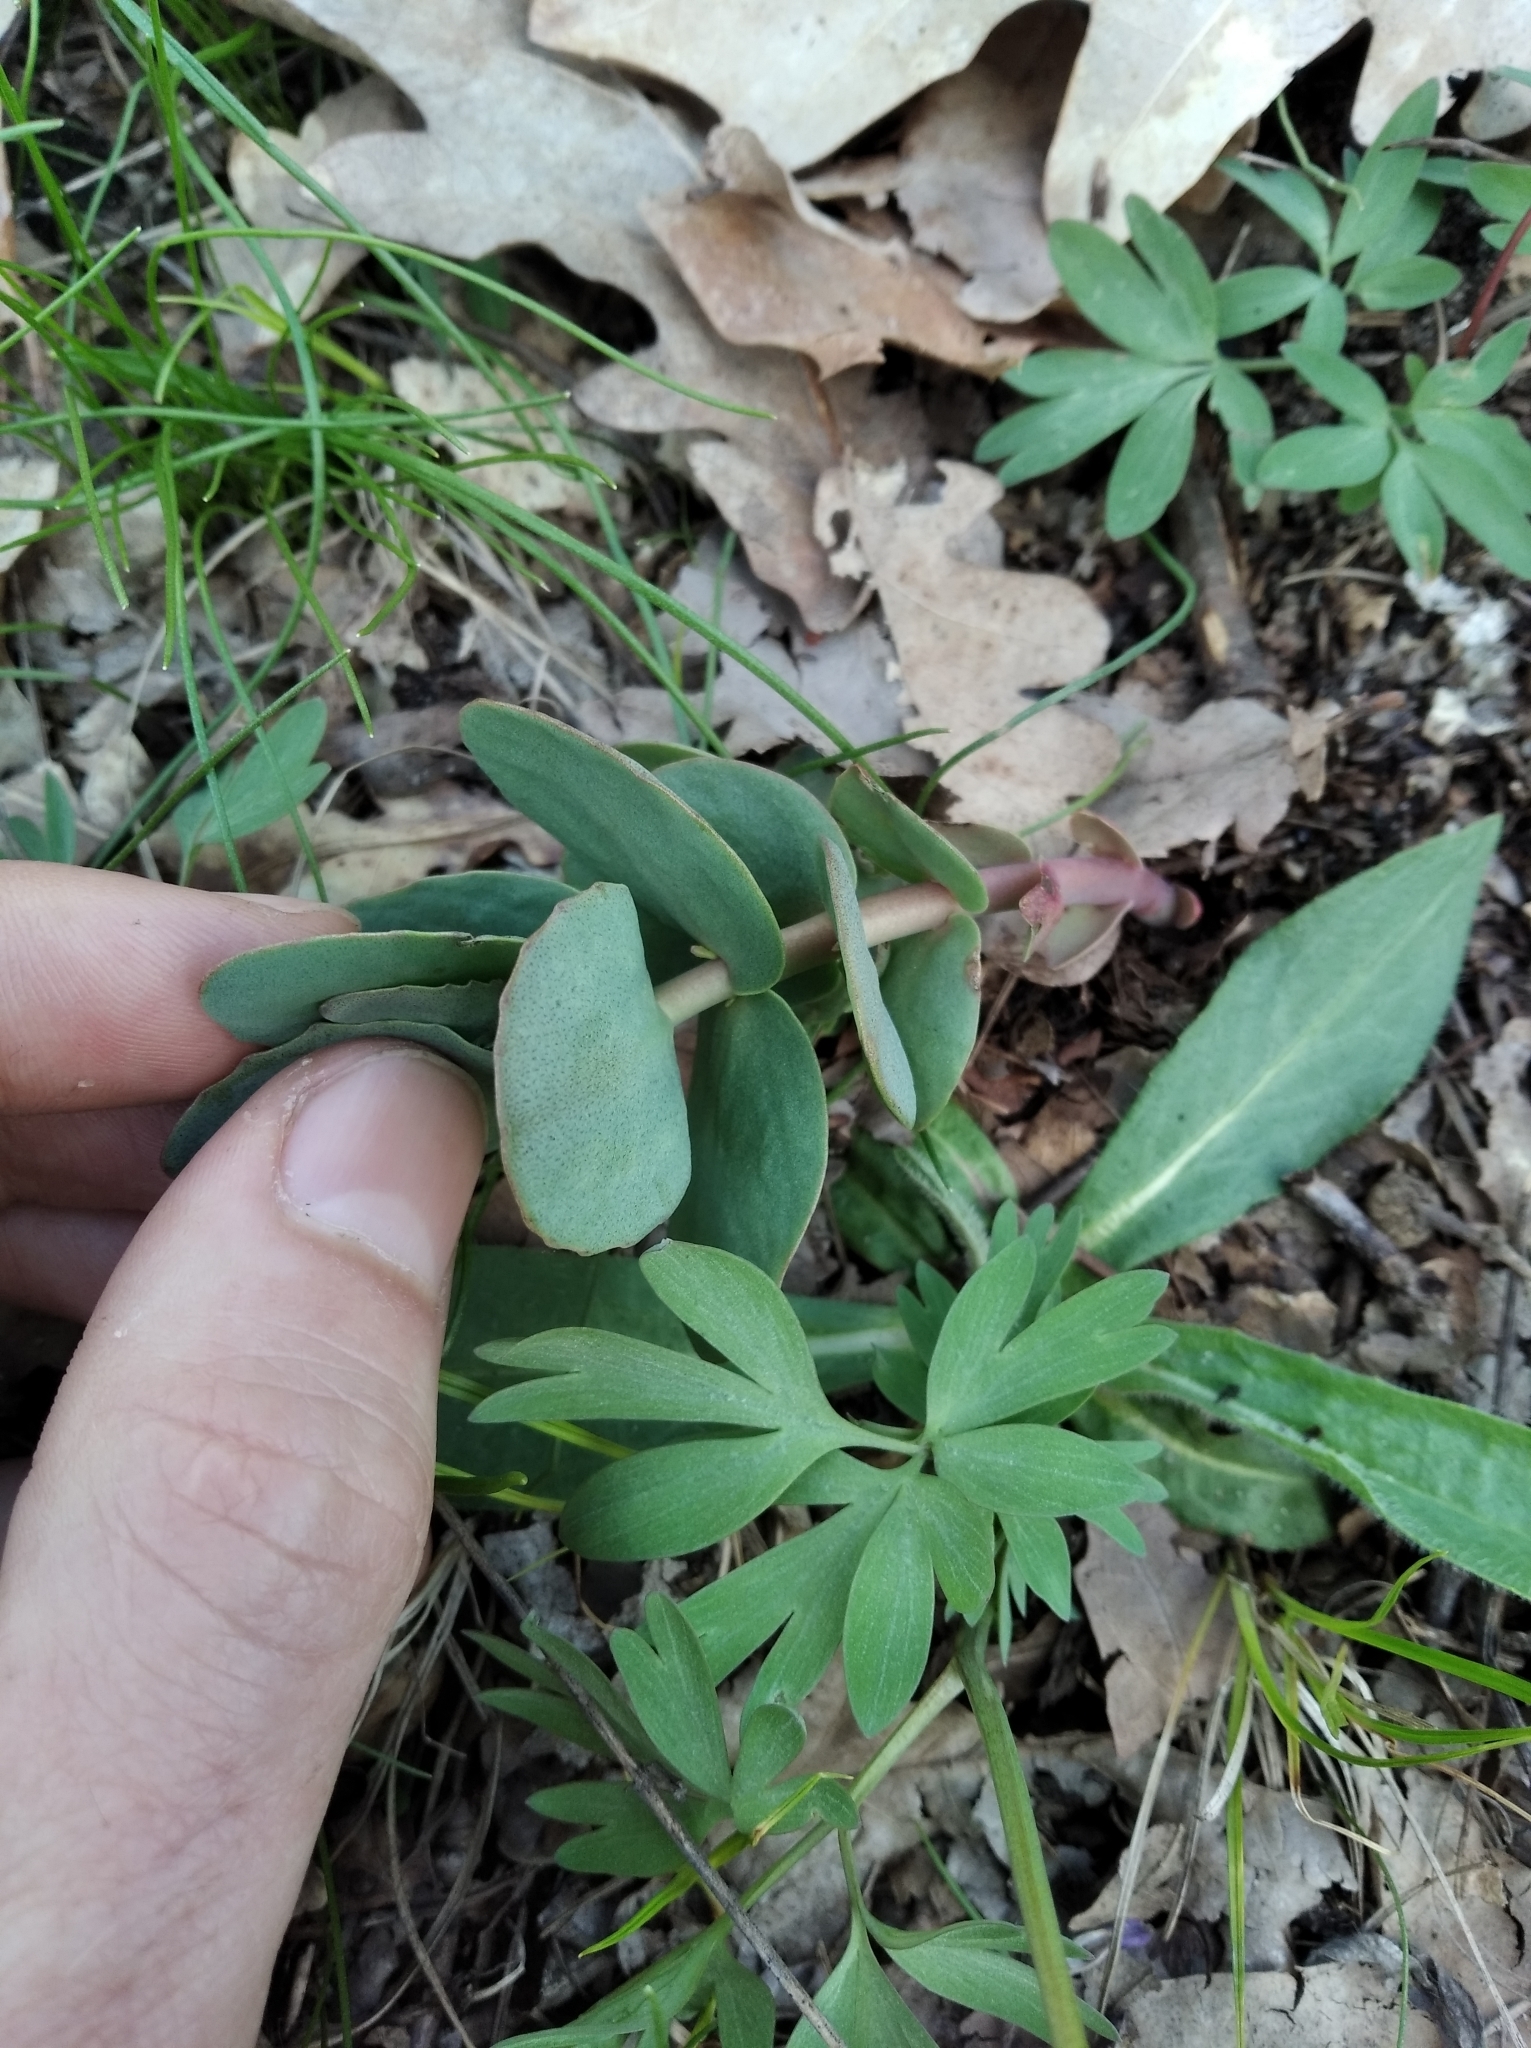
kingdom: Plantae
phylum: Tracheophyta
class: Magnoliopsida
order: Saxifragales
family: Crassulaceae
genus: Hylotelephium
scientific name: Hylotelephium maximum
